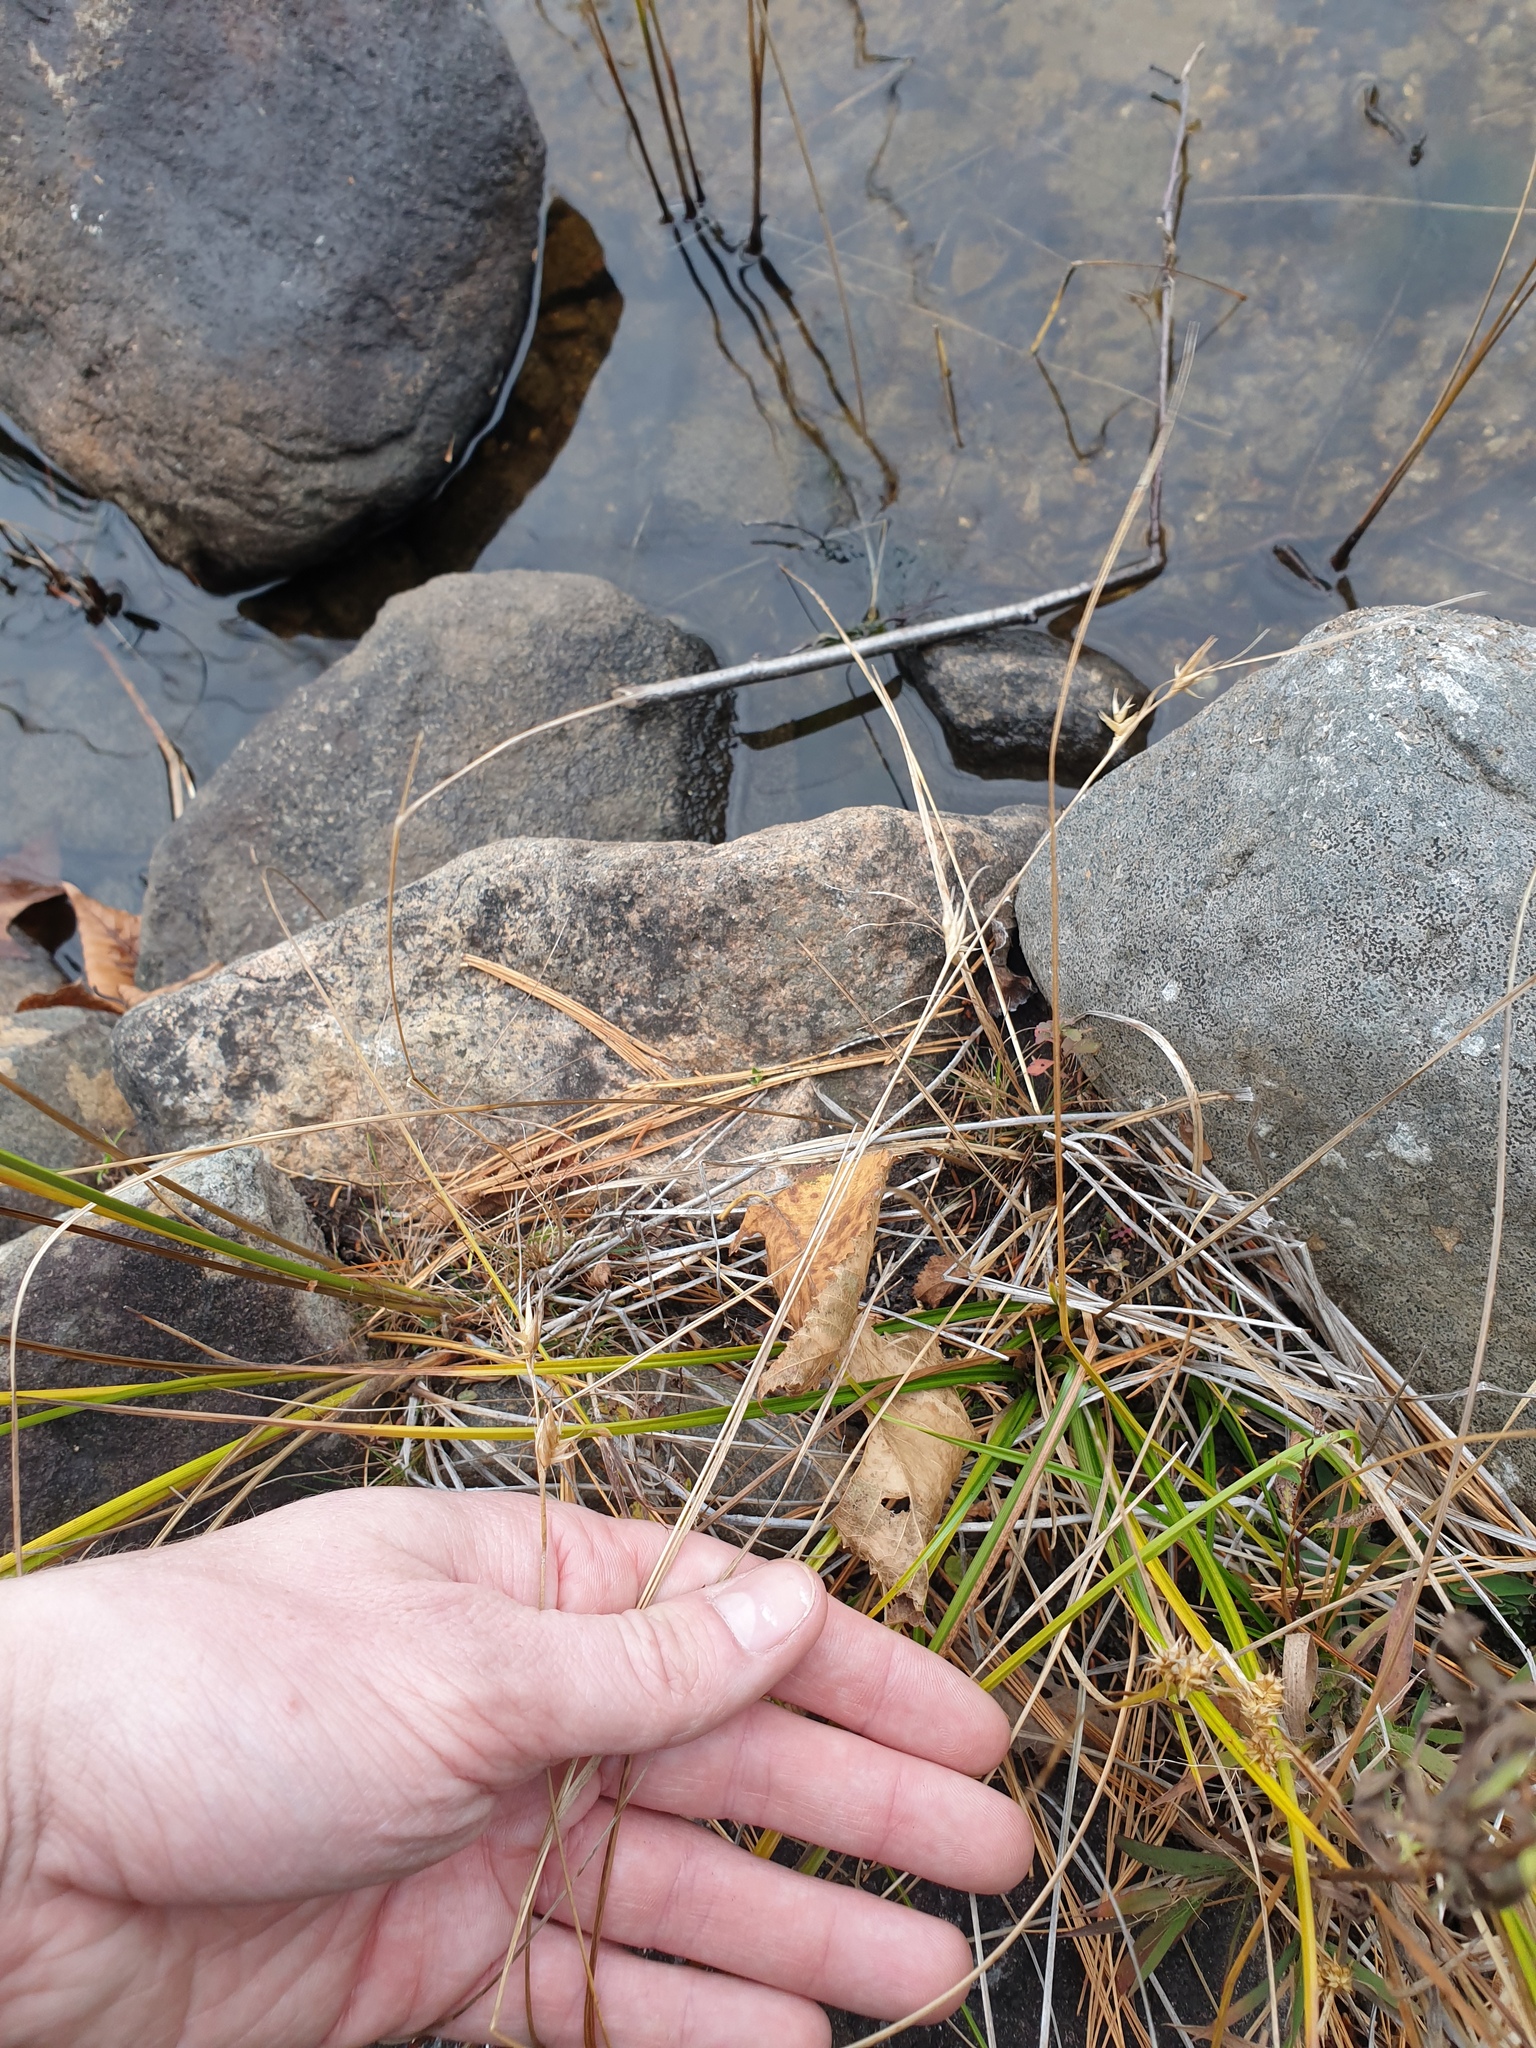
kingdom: Plantae
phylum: Tracheophyta
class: Liliopsida
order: Poales
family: Cyperaceae
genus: Carex
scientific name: Carex michauxiana
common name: Michaux's sedge
